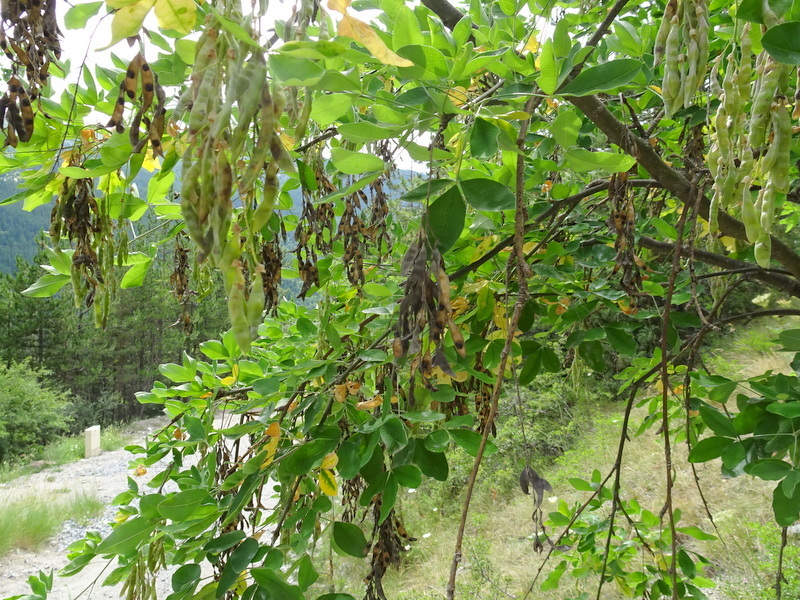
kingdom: Plantae
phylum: Tracheophyta
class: Magnoliopsida
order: Fabales
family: Fabaceae
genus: Laburnum
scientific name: Laburnum anagyroides
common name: Laburnum
